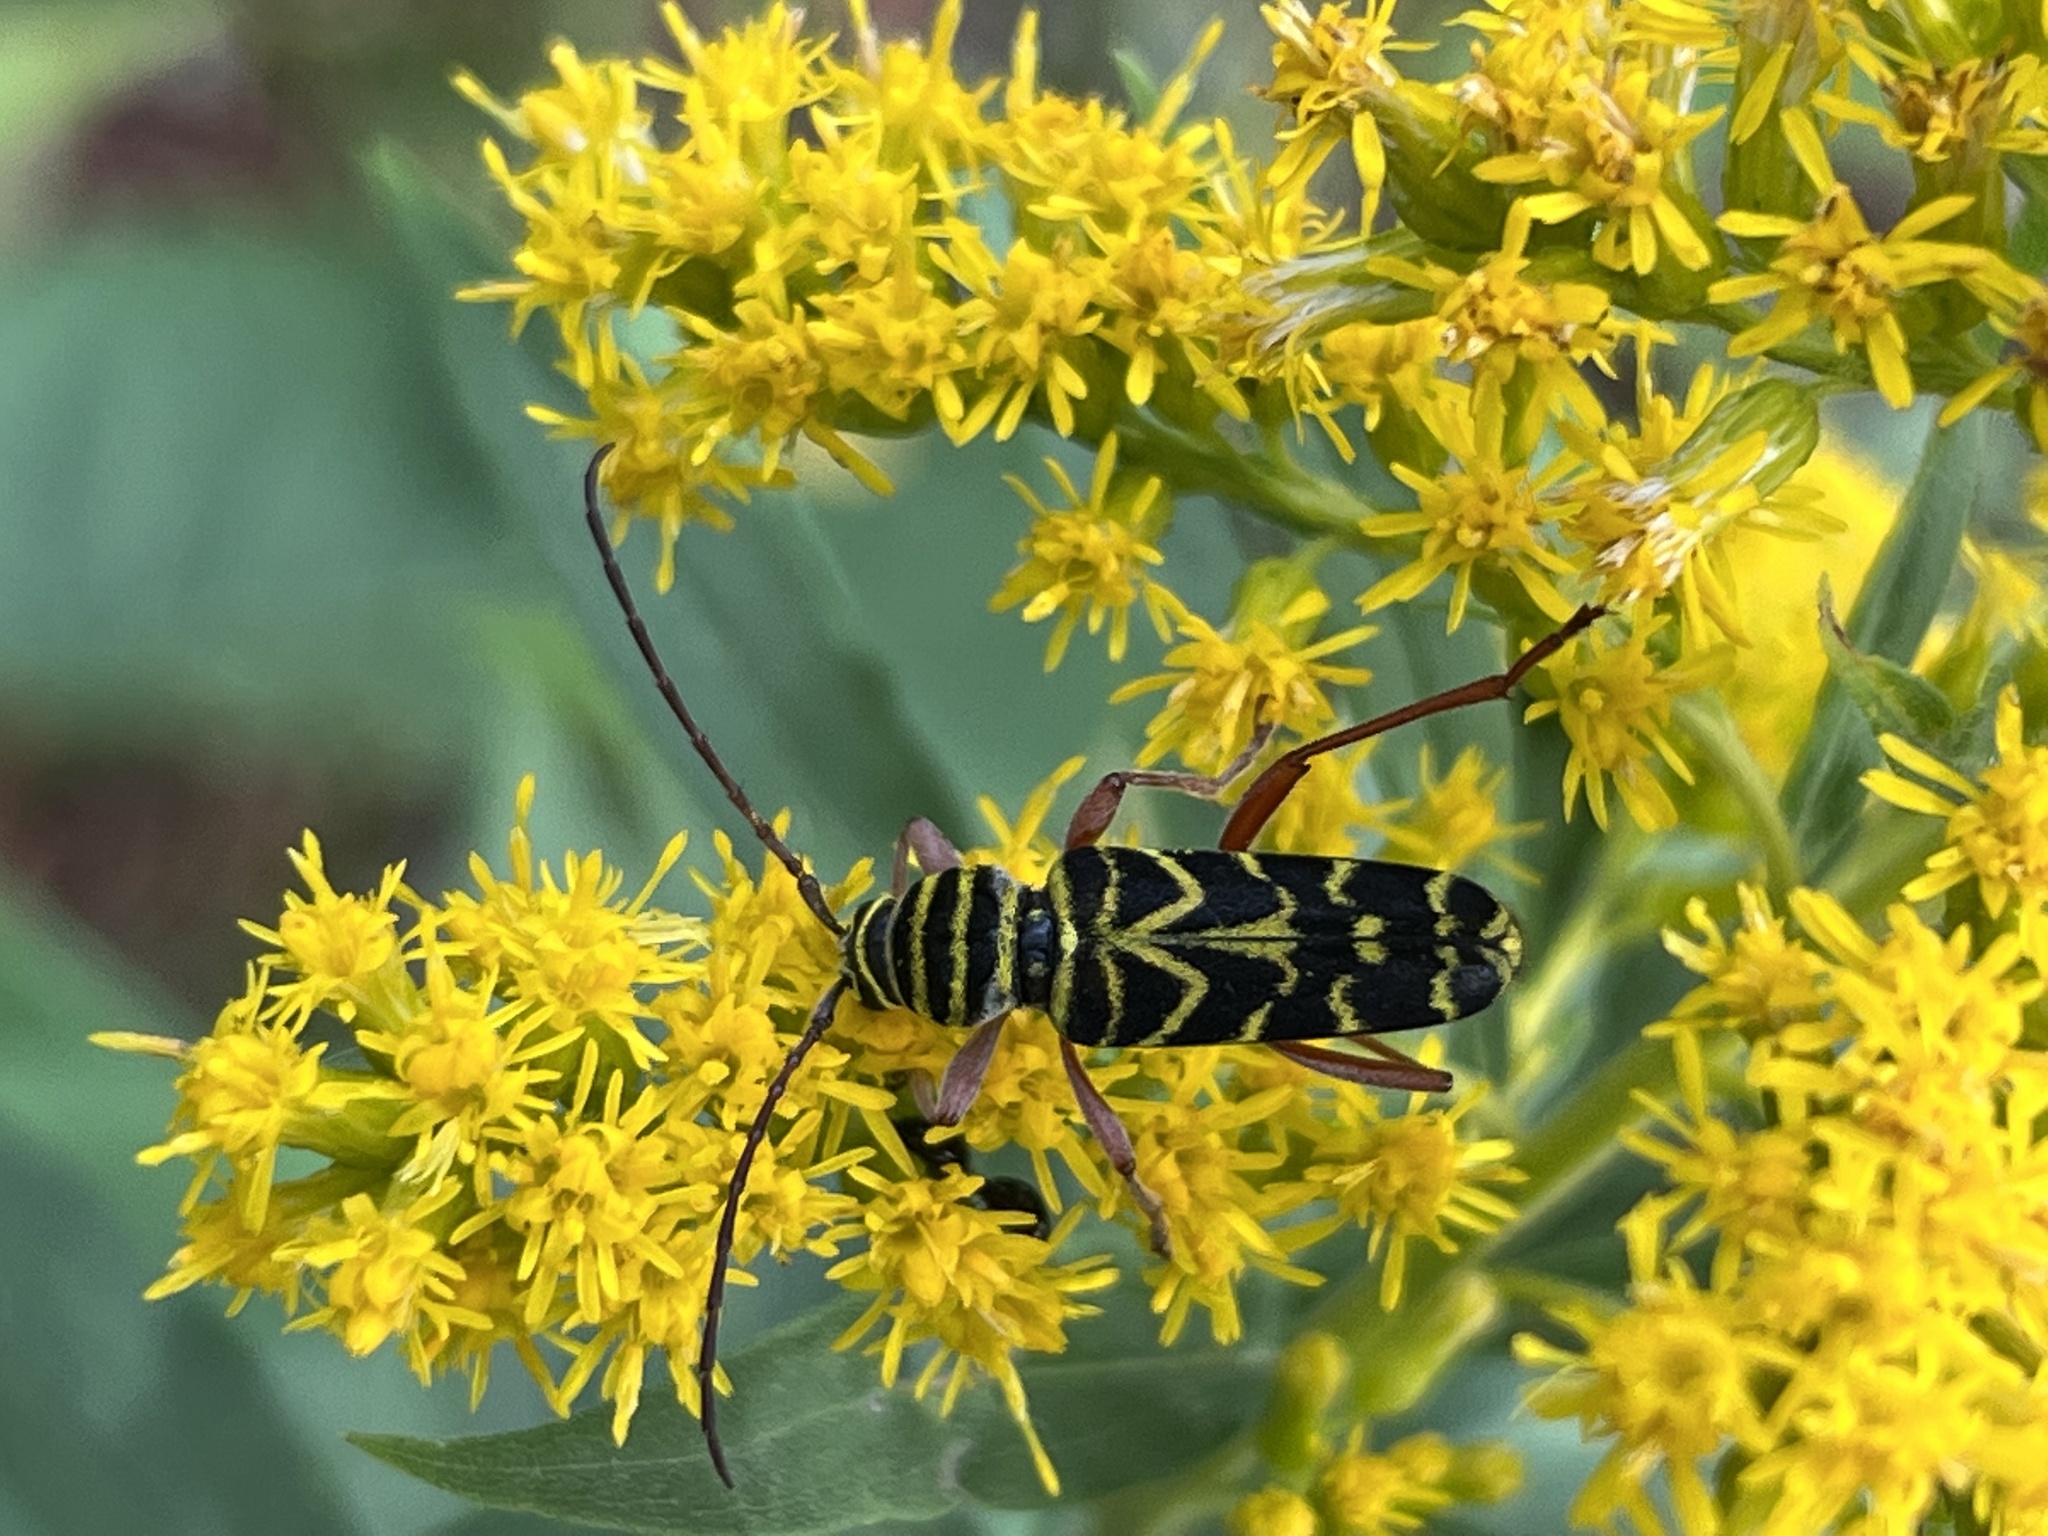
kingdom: Animalia
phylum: Arthropoda
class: Insecta
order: Coleoptera
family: Cerambycidae
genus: Megacyllene
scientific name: Megacyllene robiniae
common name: Locust borer
